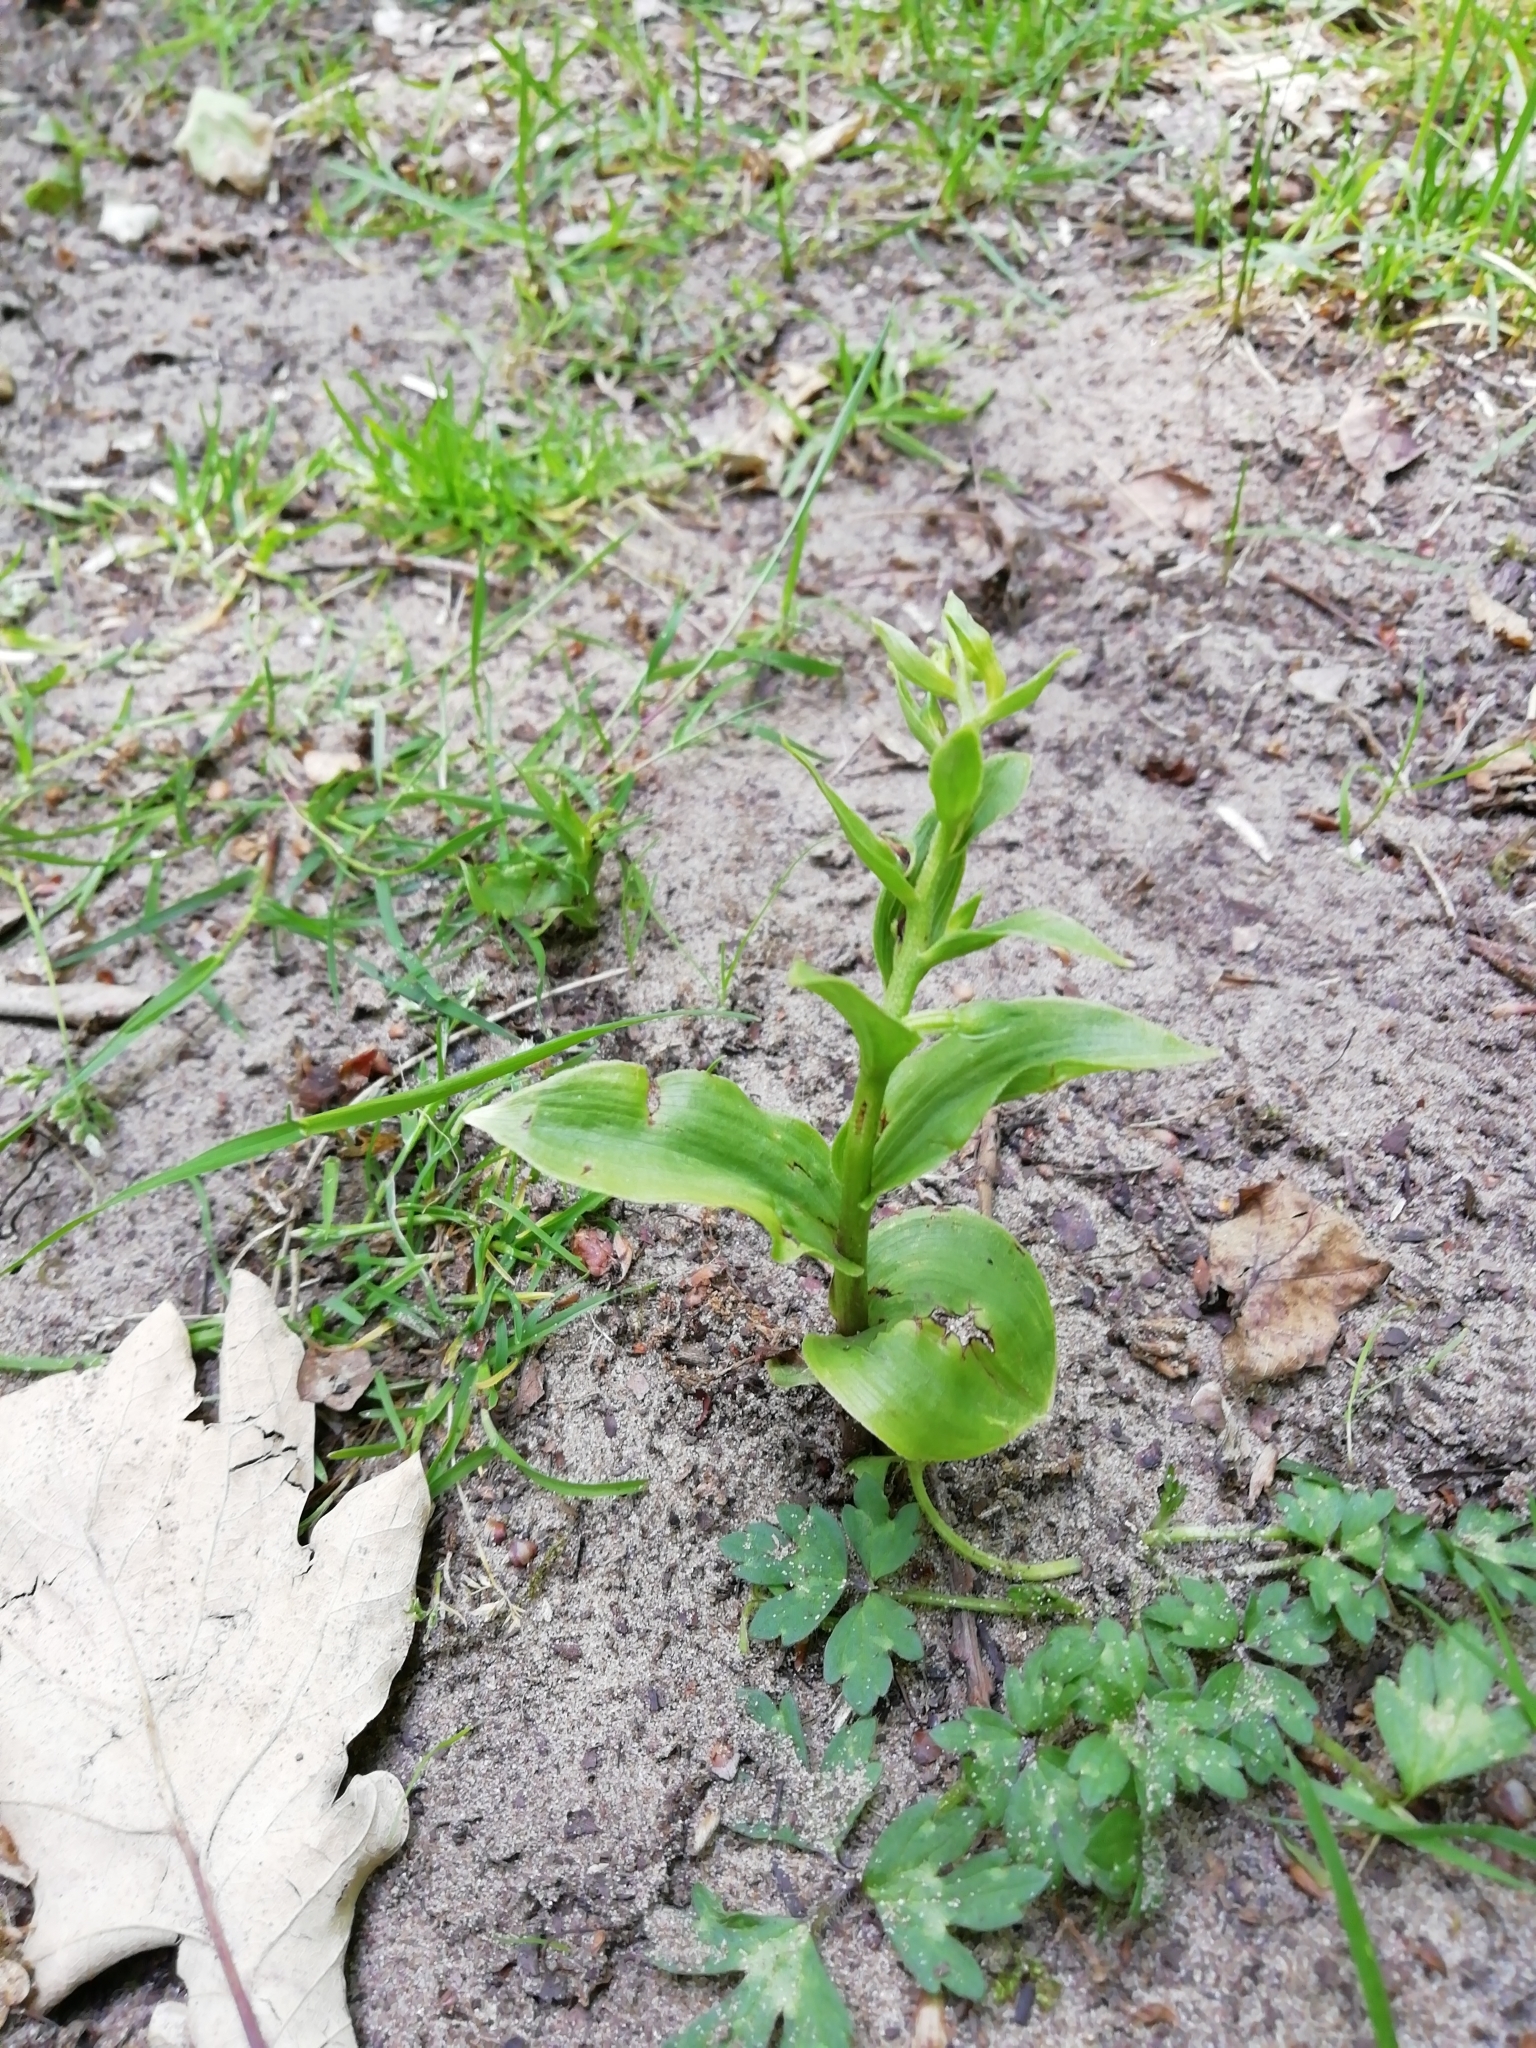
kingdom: Plantae
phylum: Tracheophyta
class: Liliopsida
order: Asparagales
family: Orchidaceae
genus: Epipactis
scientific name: Epipactis helleborine
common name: Broad-leaved helleborine
